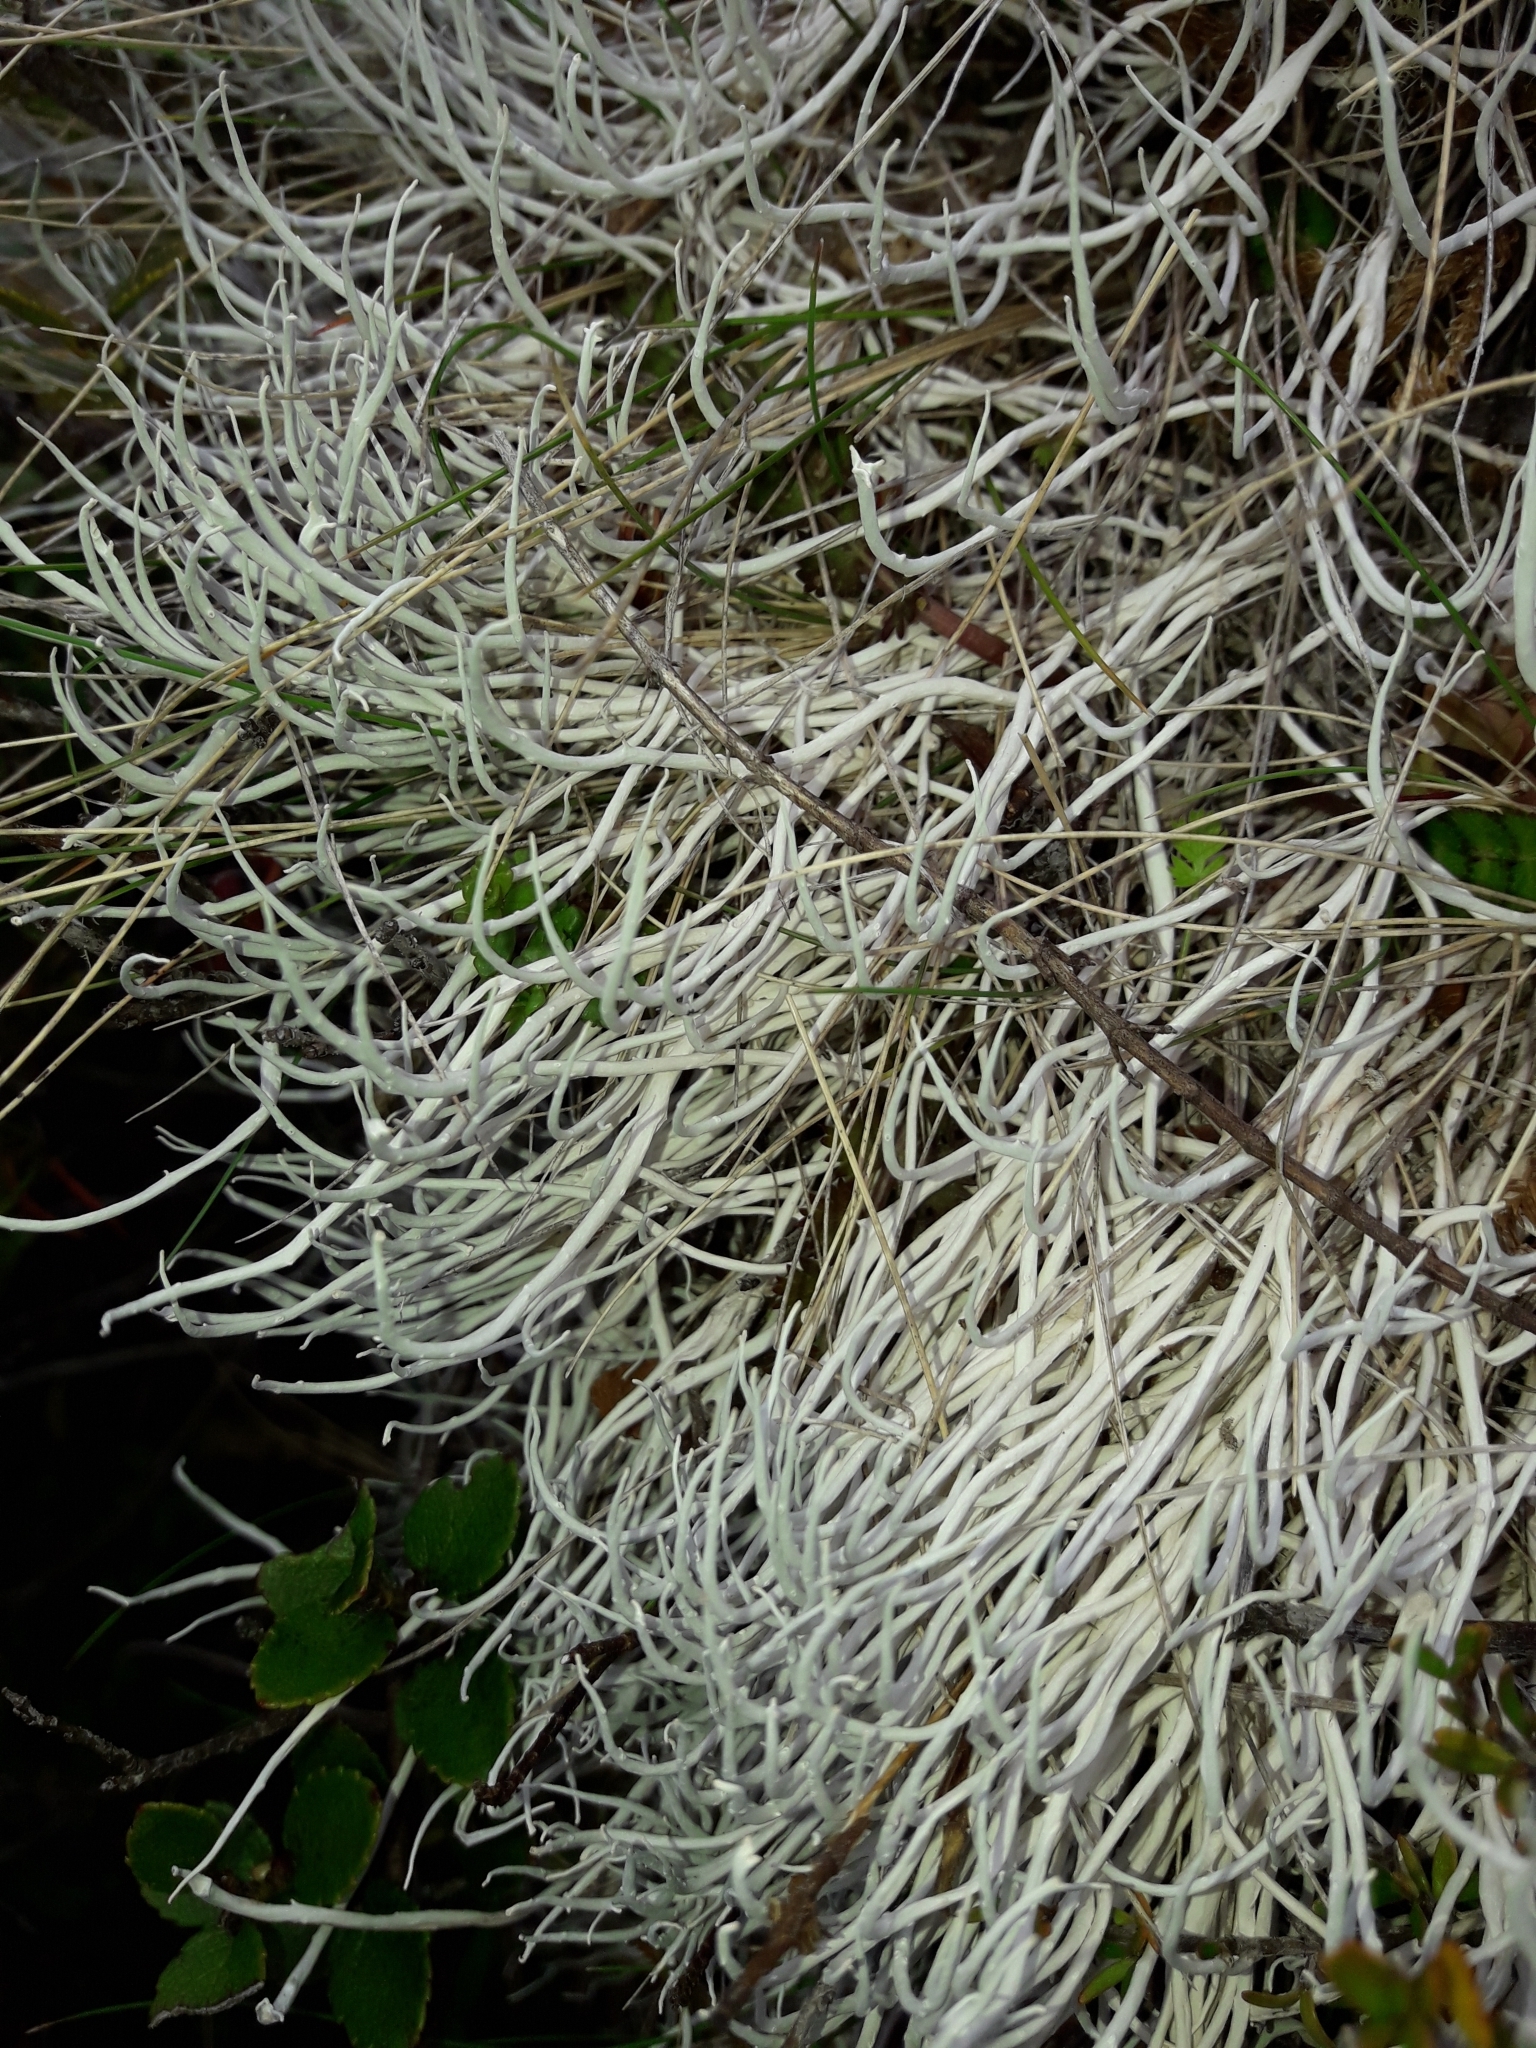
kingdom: Fungi
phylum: Ascomycota
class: Lecanoromycetes
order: Pertusariales
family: Icmadophilaceae
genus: Thamnolia
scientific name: Thamnolia vermicularis
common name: Whiteworm lichen
